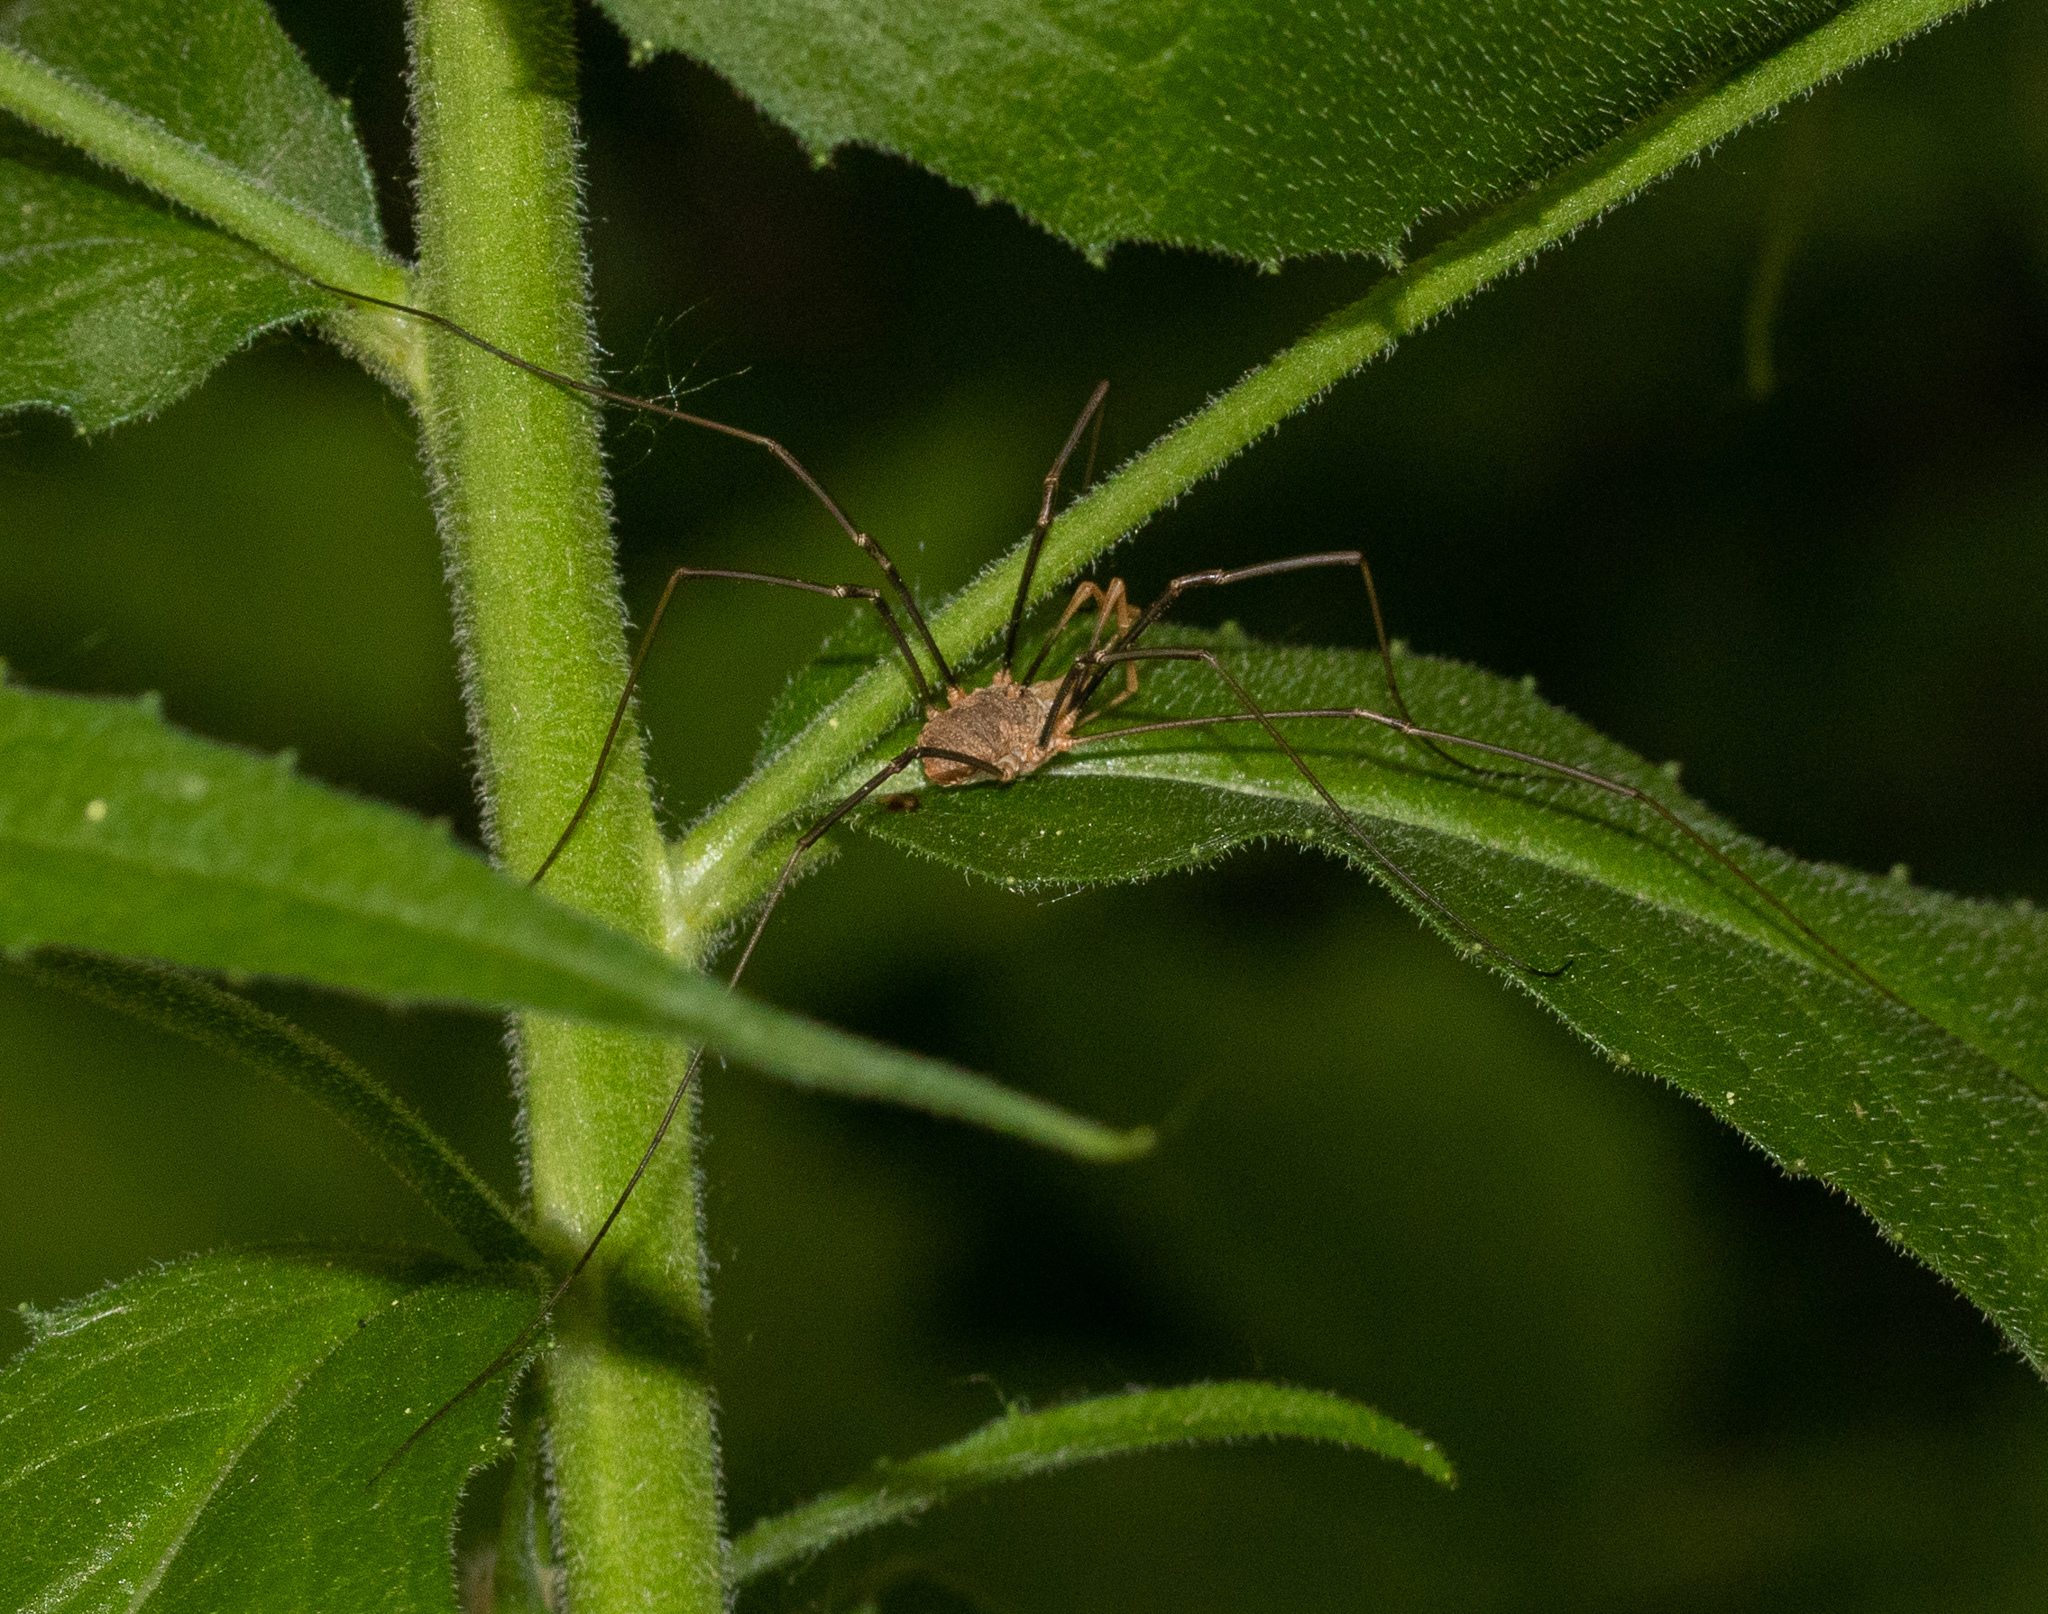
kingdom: Animalia
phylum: Arthropoda
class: Arachnida
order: Opiliones
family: Phalangiidae
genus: Phalangium
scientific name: Phalangium opilio
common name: Daddy longleg
